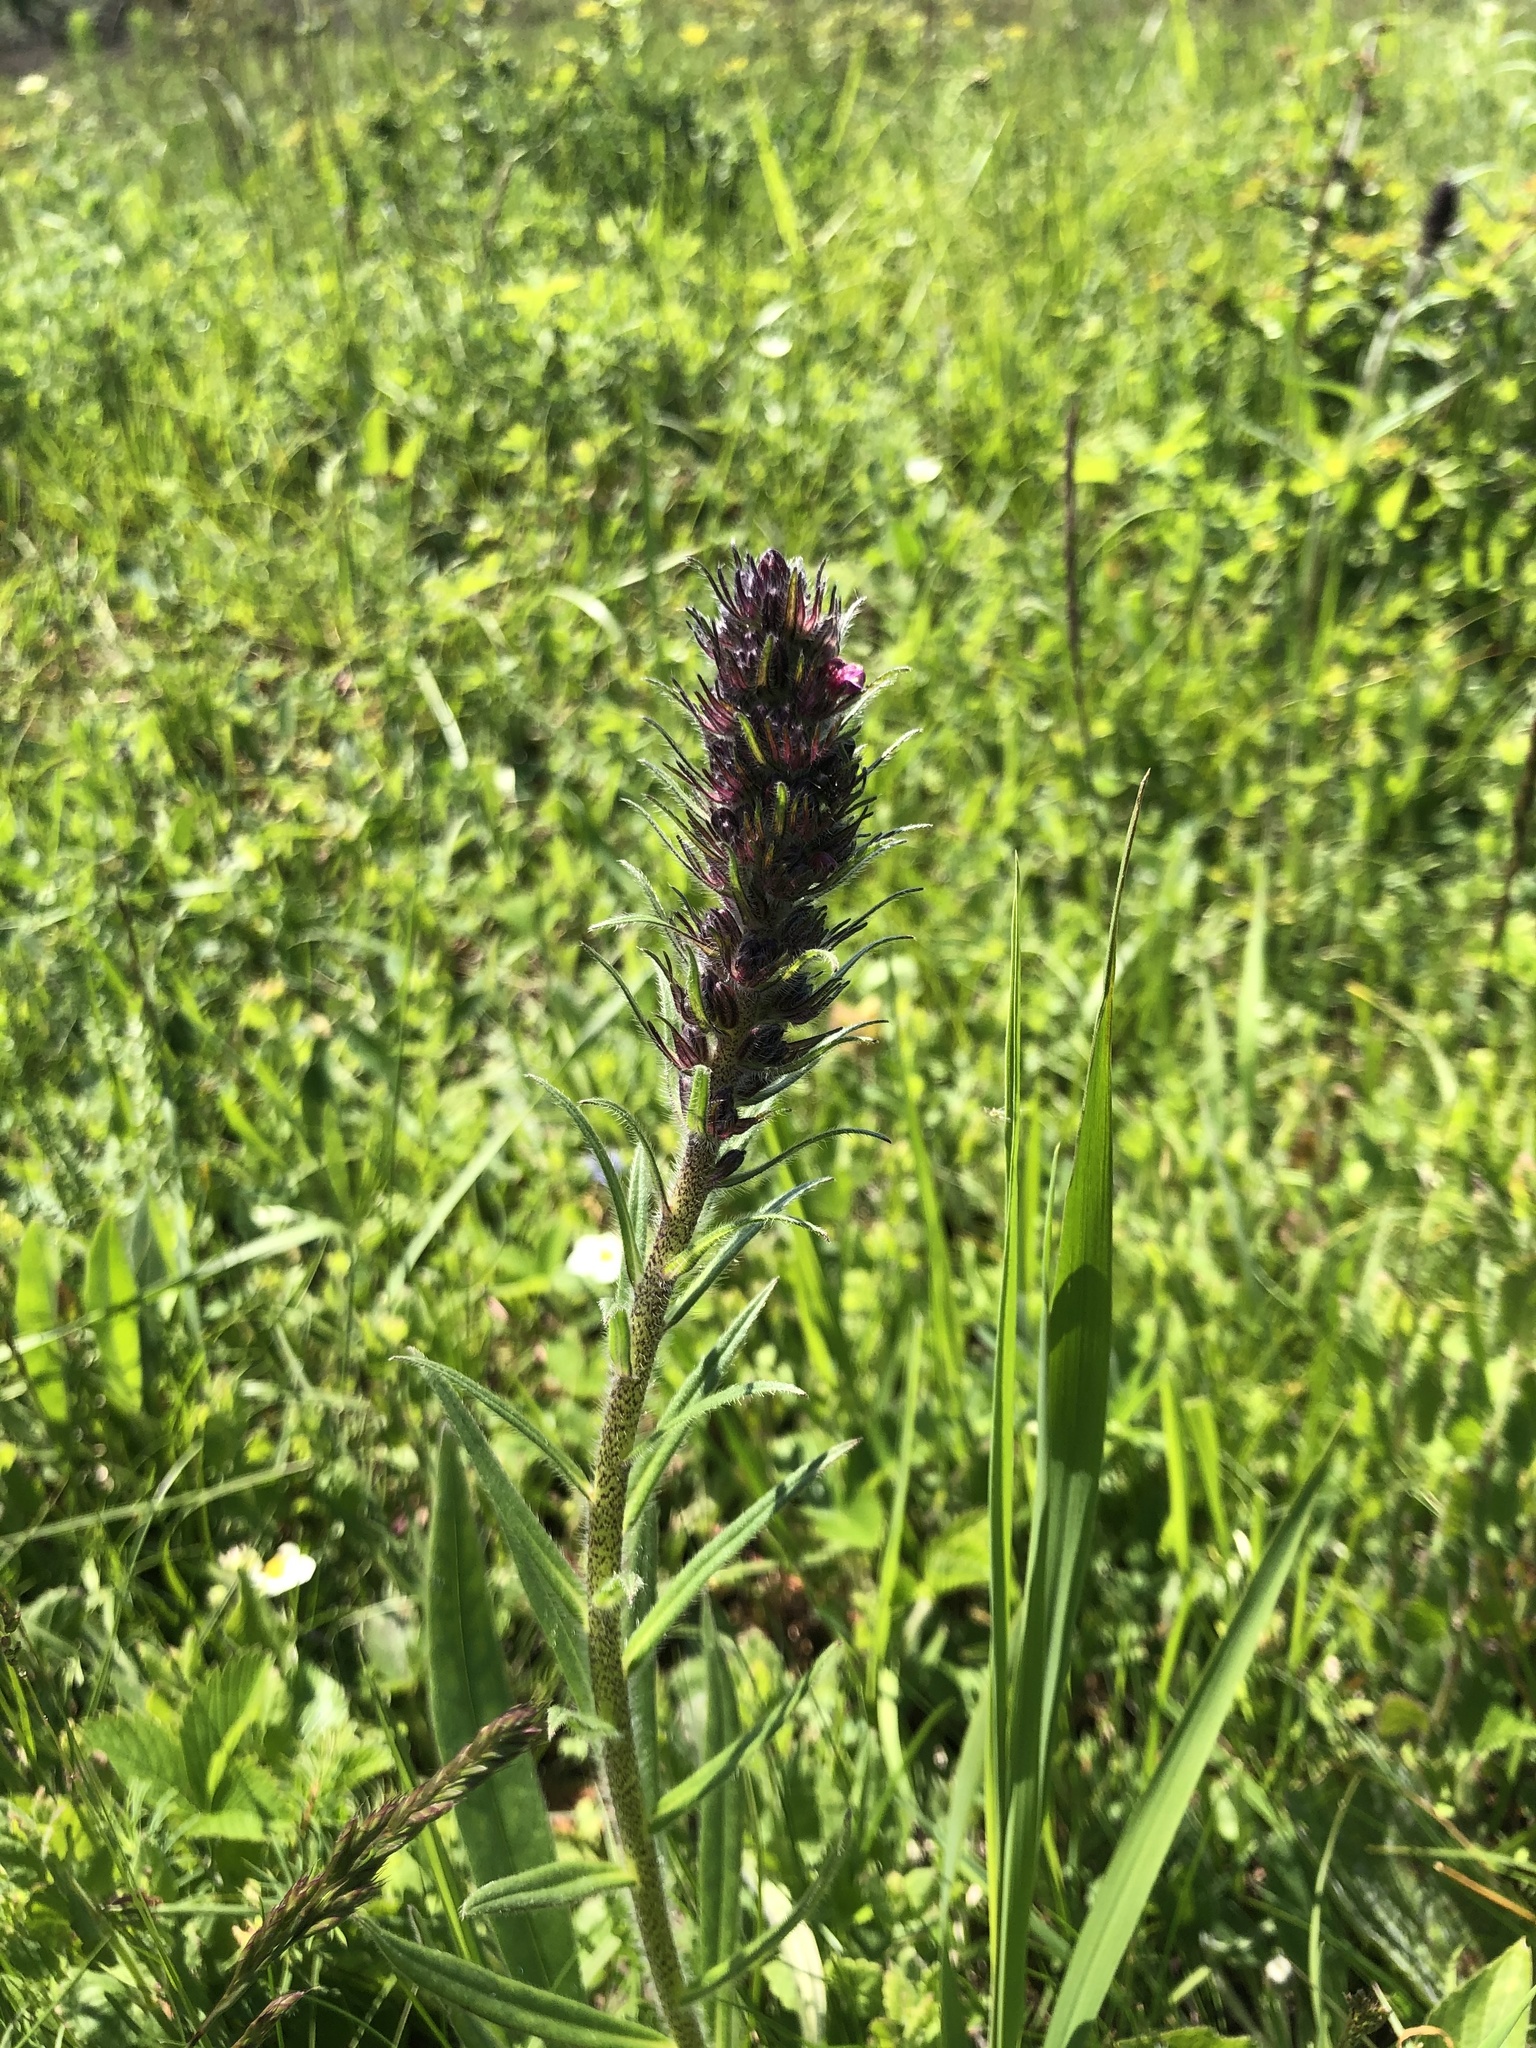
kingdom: Plantae
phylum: Tracheophyta
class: Magnoliopsida
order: Boraginales
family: Boraginaceae
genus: Pontechium
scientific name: Pontechium maculatum
